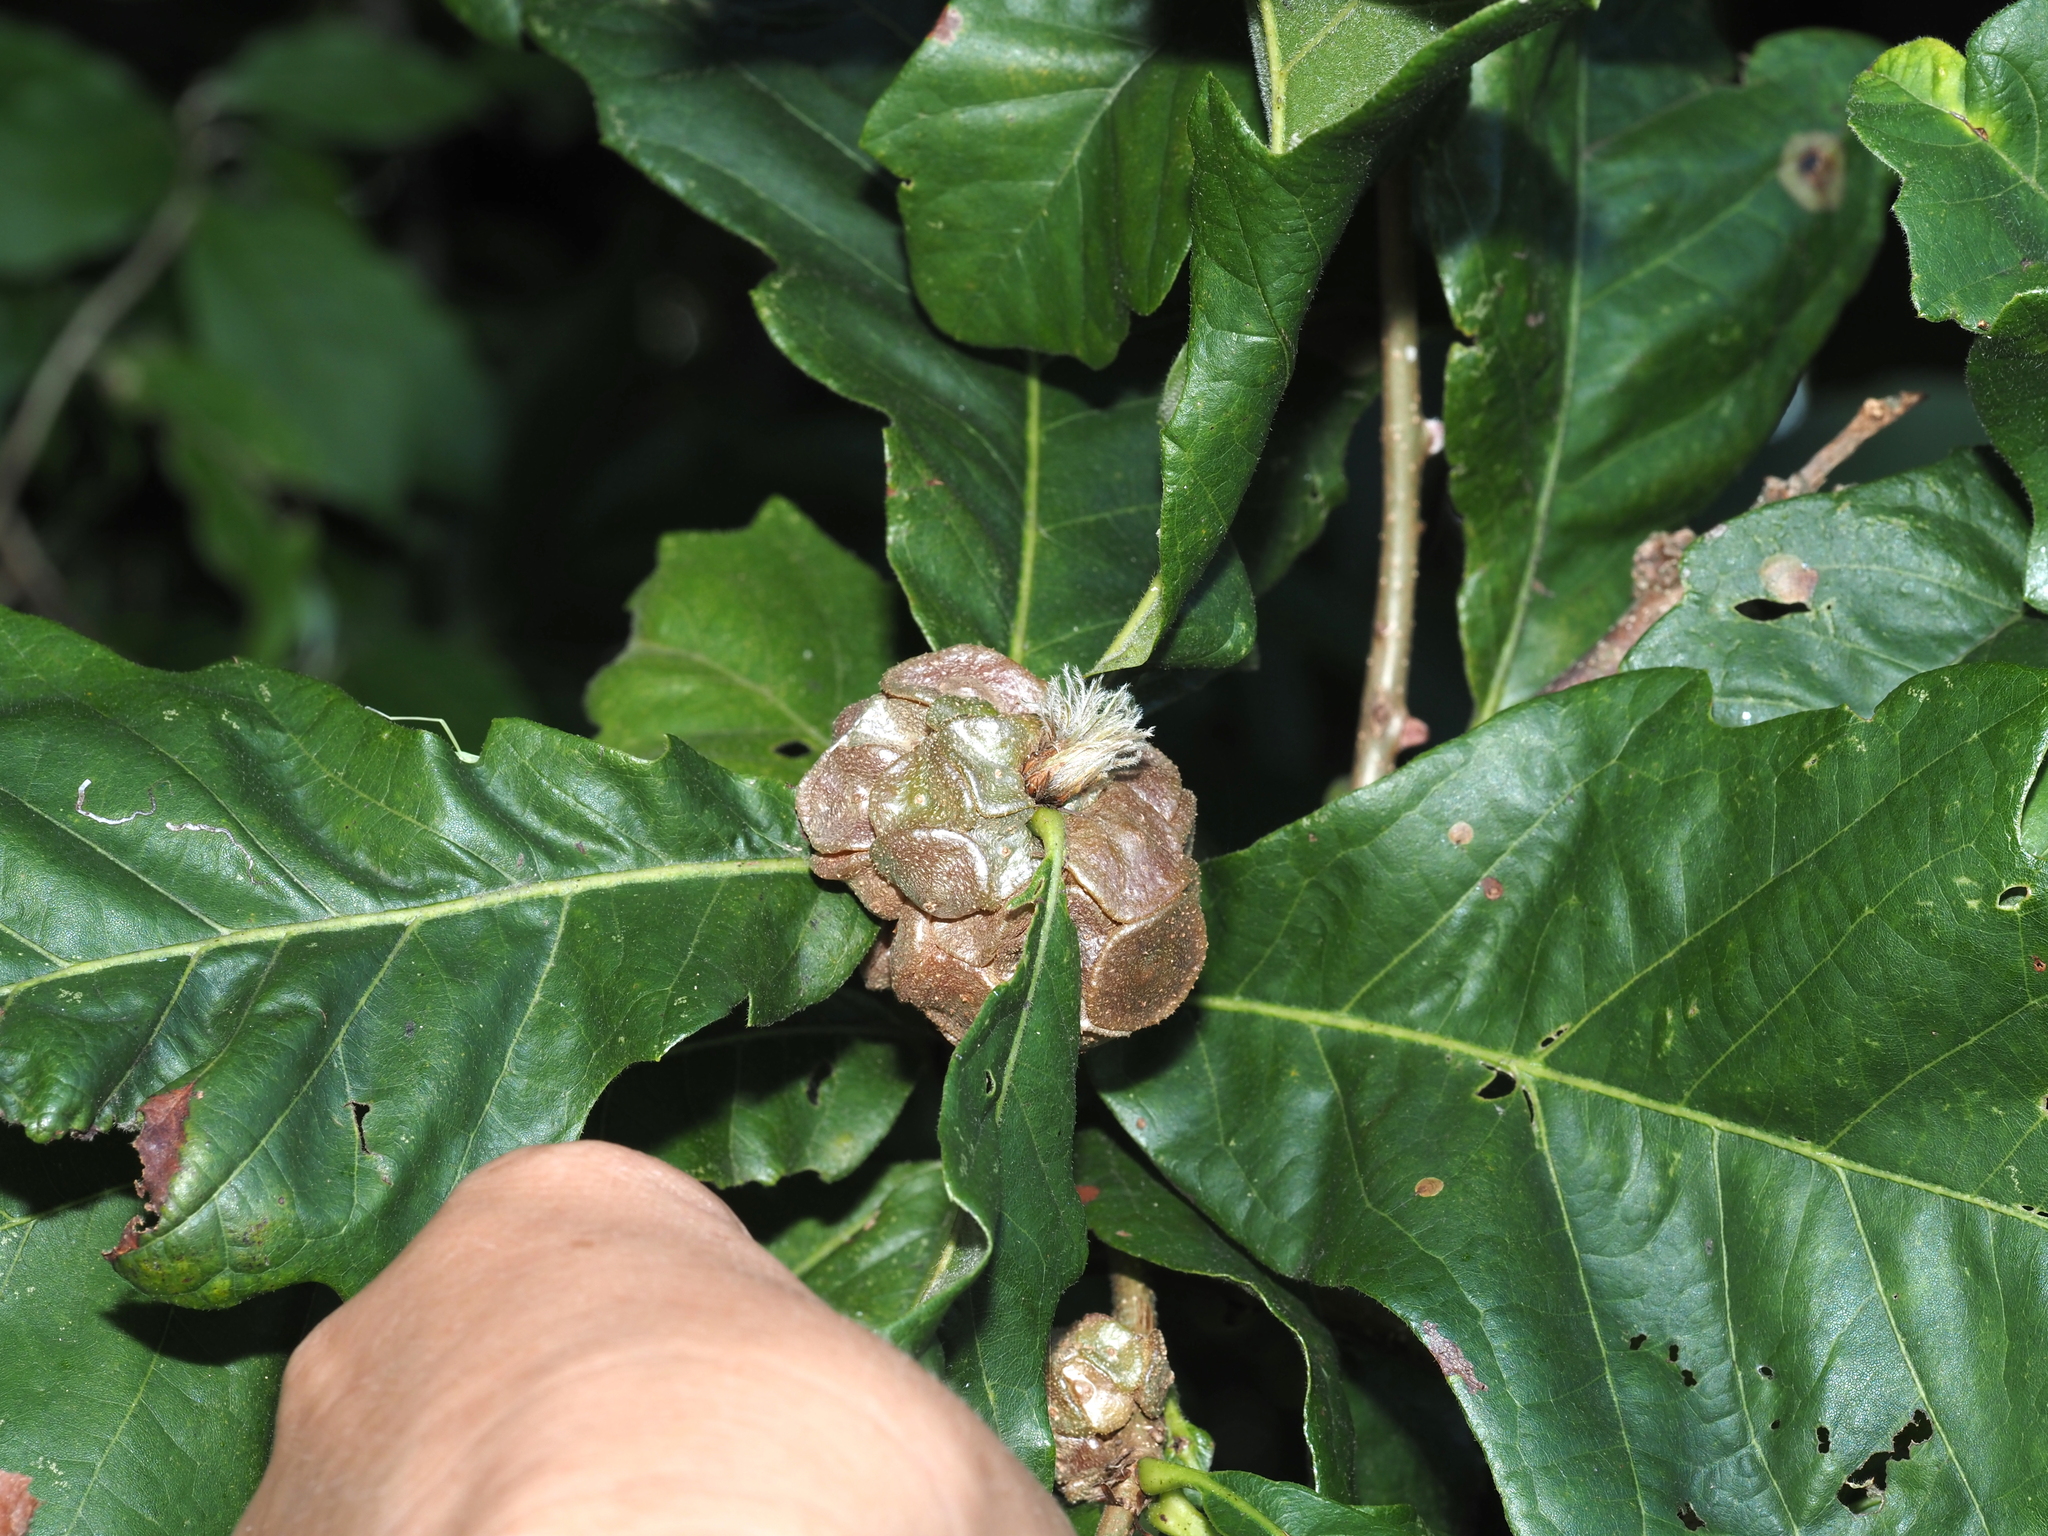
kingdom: Animalia
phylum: Arthropoda
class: Insecta
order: Hymenoptera
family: Cynipidae
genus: Andricus
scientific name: Andricus
